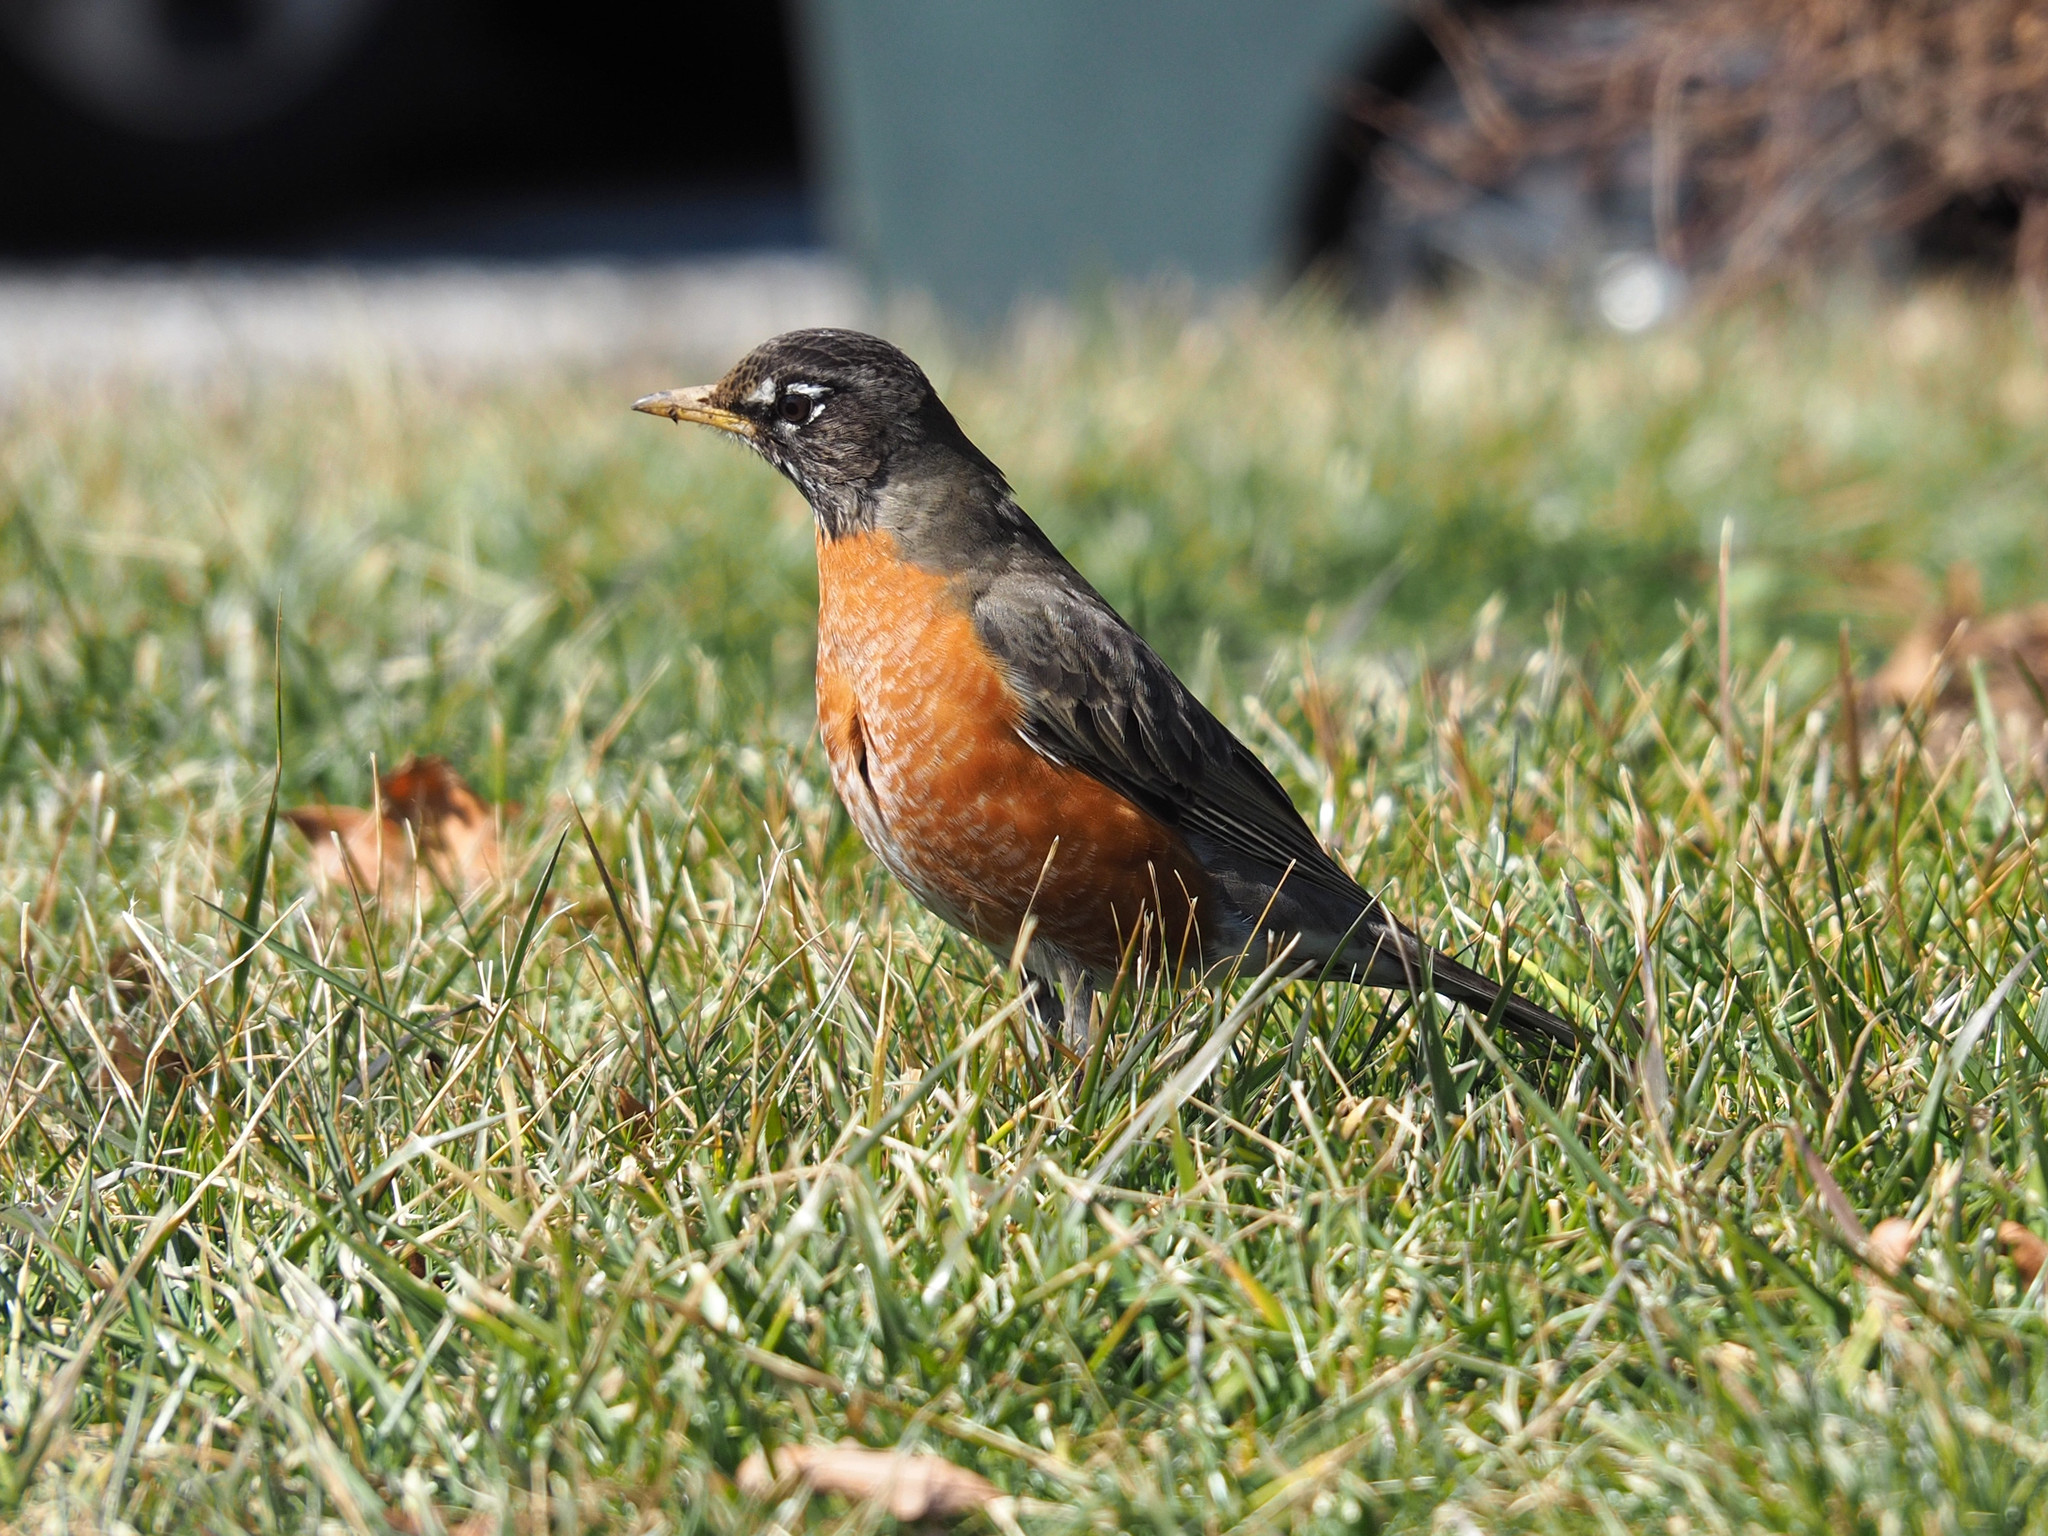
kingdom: Animalia
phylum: Chordata
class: Aves
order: Passeriformes
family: Turdidae
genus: Turdus
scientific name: Turdus migratorius
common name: American robin
